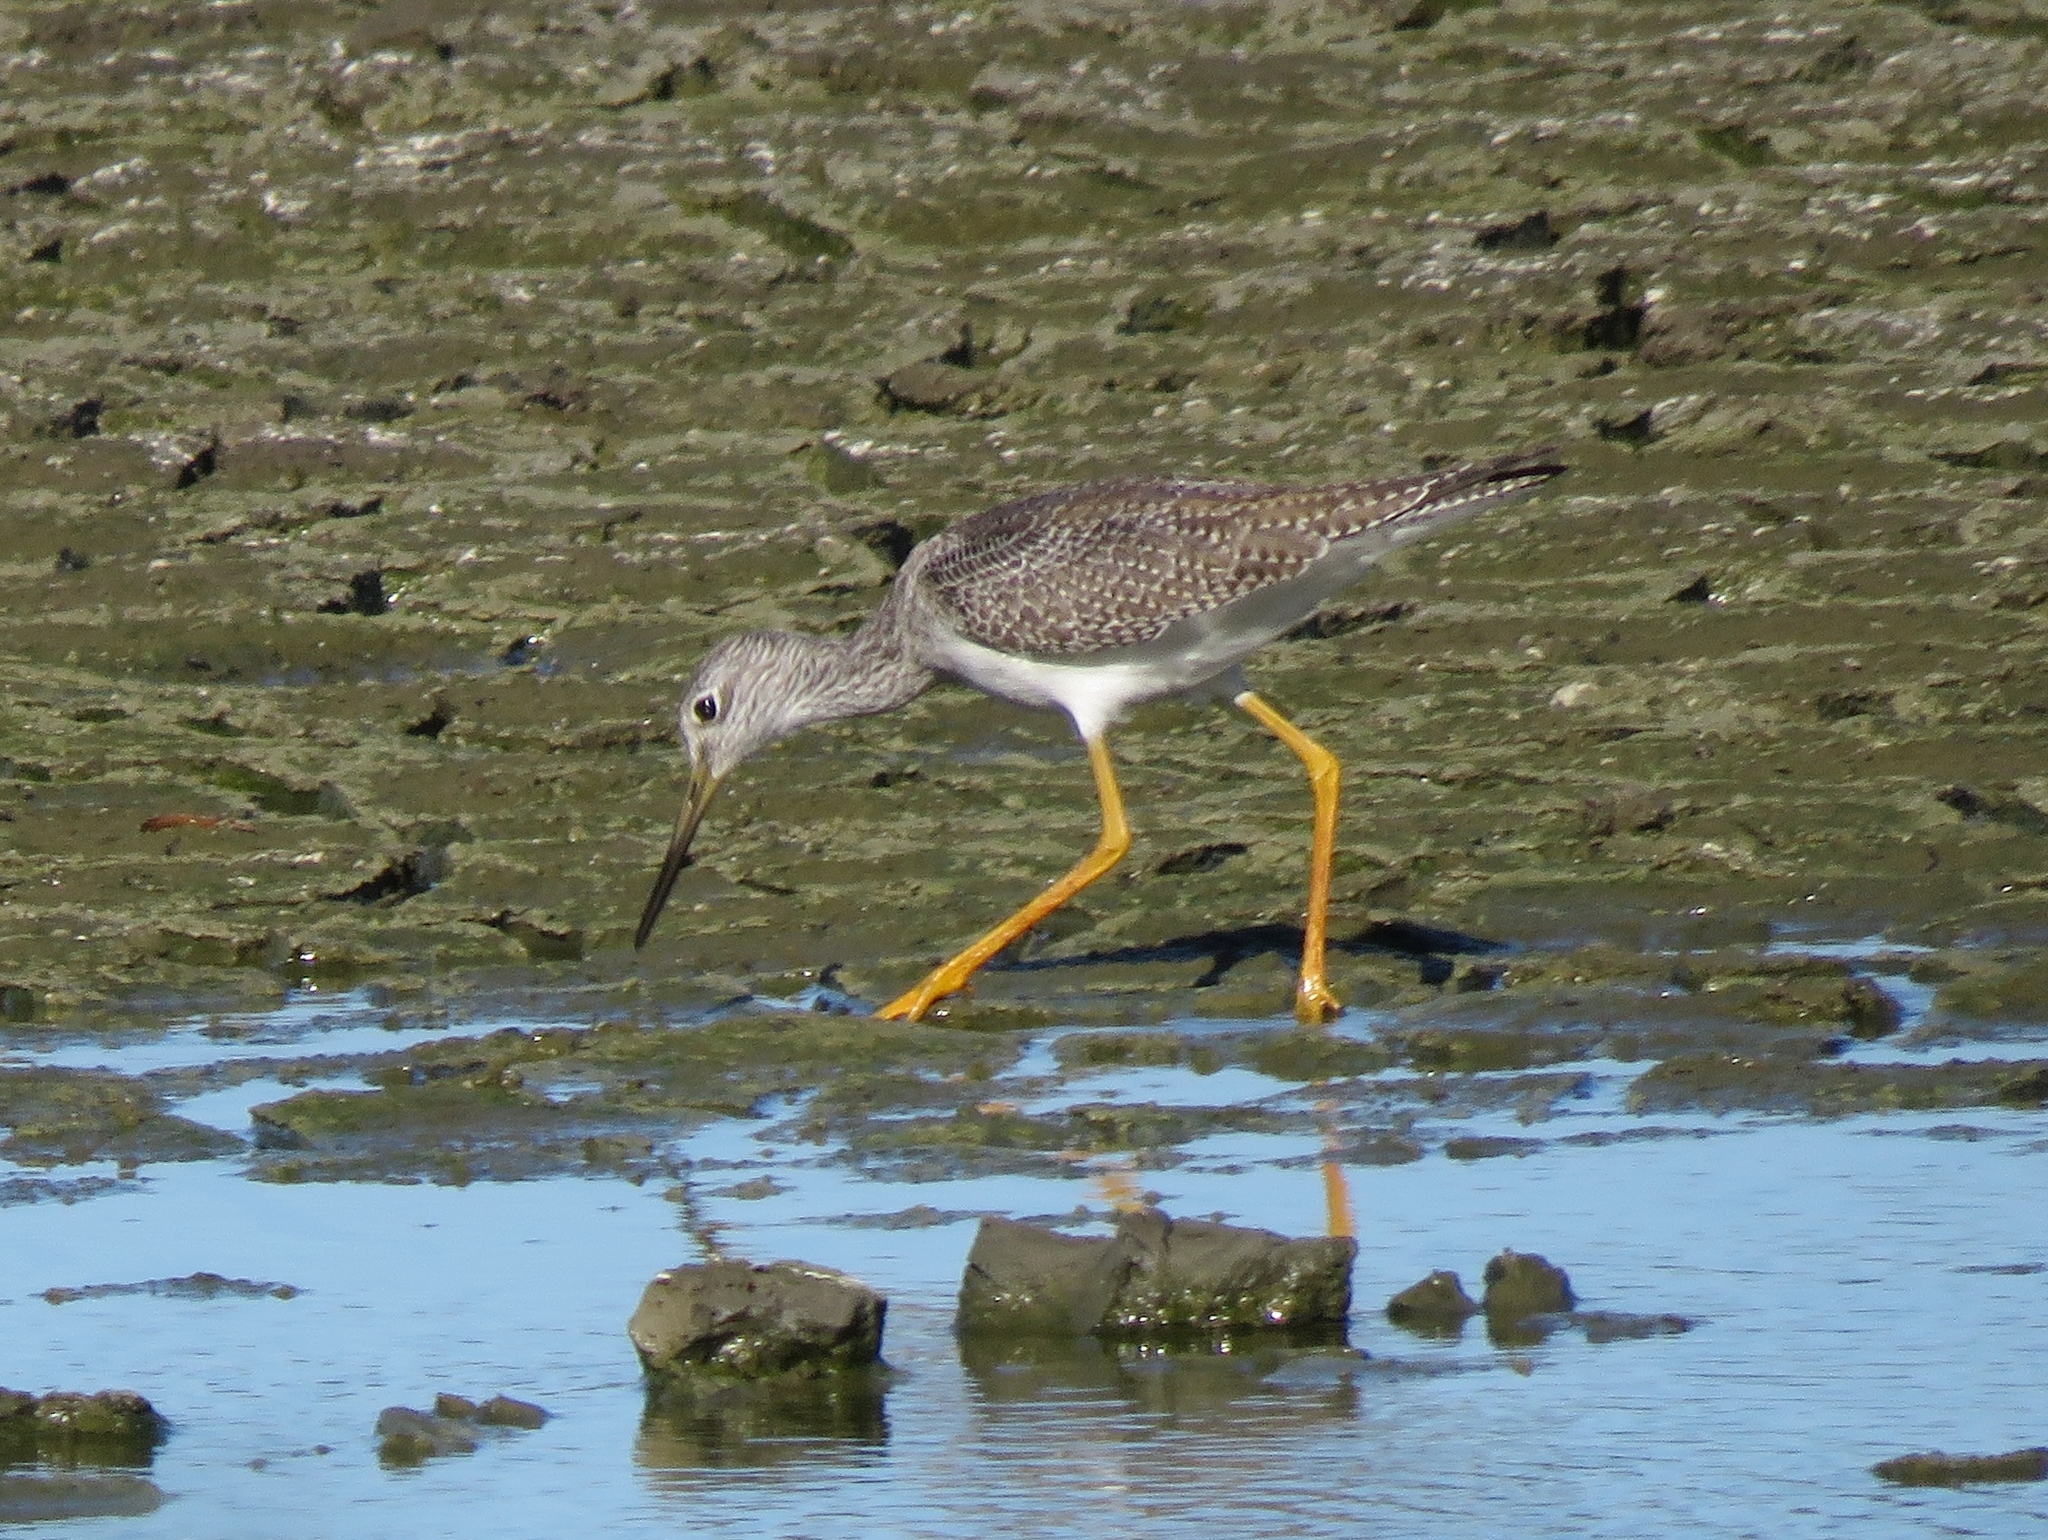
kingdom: Animalia
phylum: Chordata
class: Aves
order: Charadriiformes
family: Scolopacidae
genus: Tringa
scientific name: Tringa melanoleuca
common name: Greater yellowlegs
